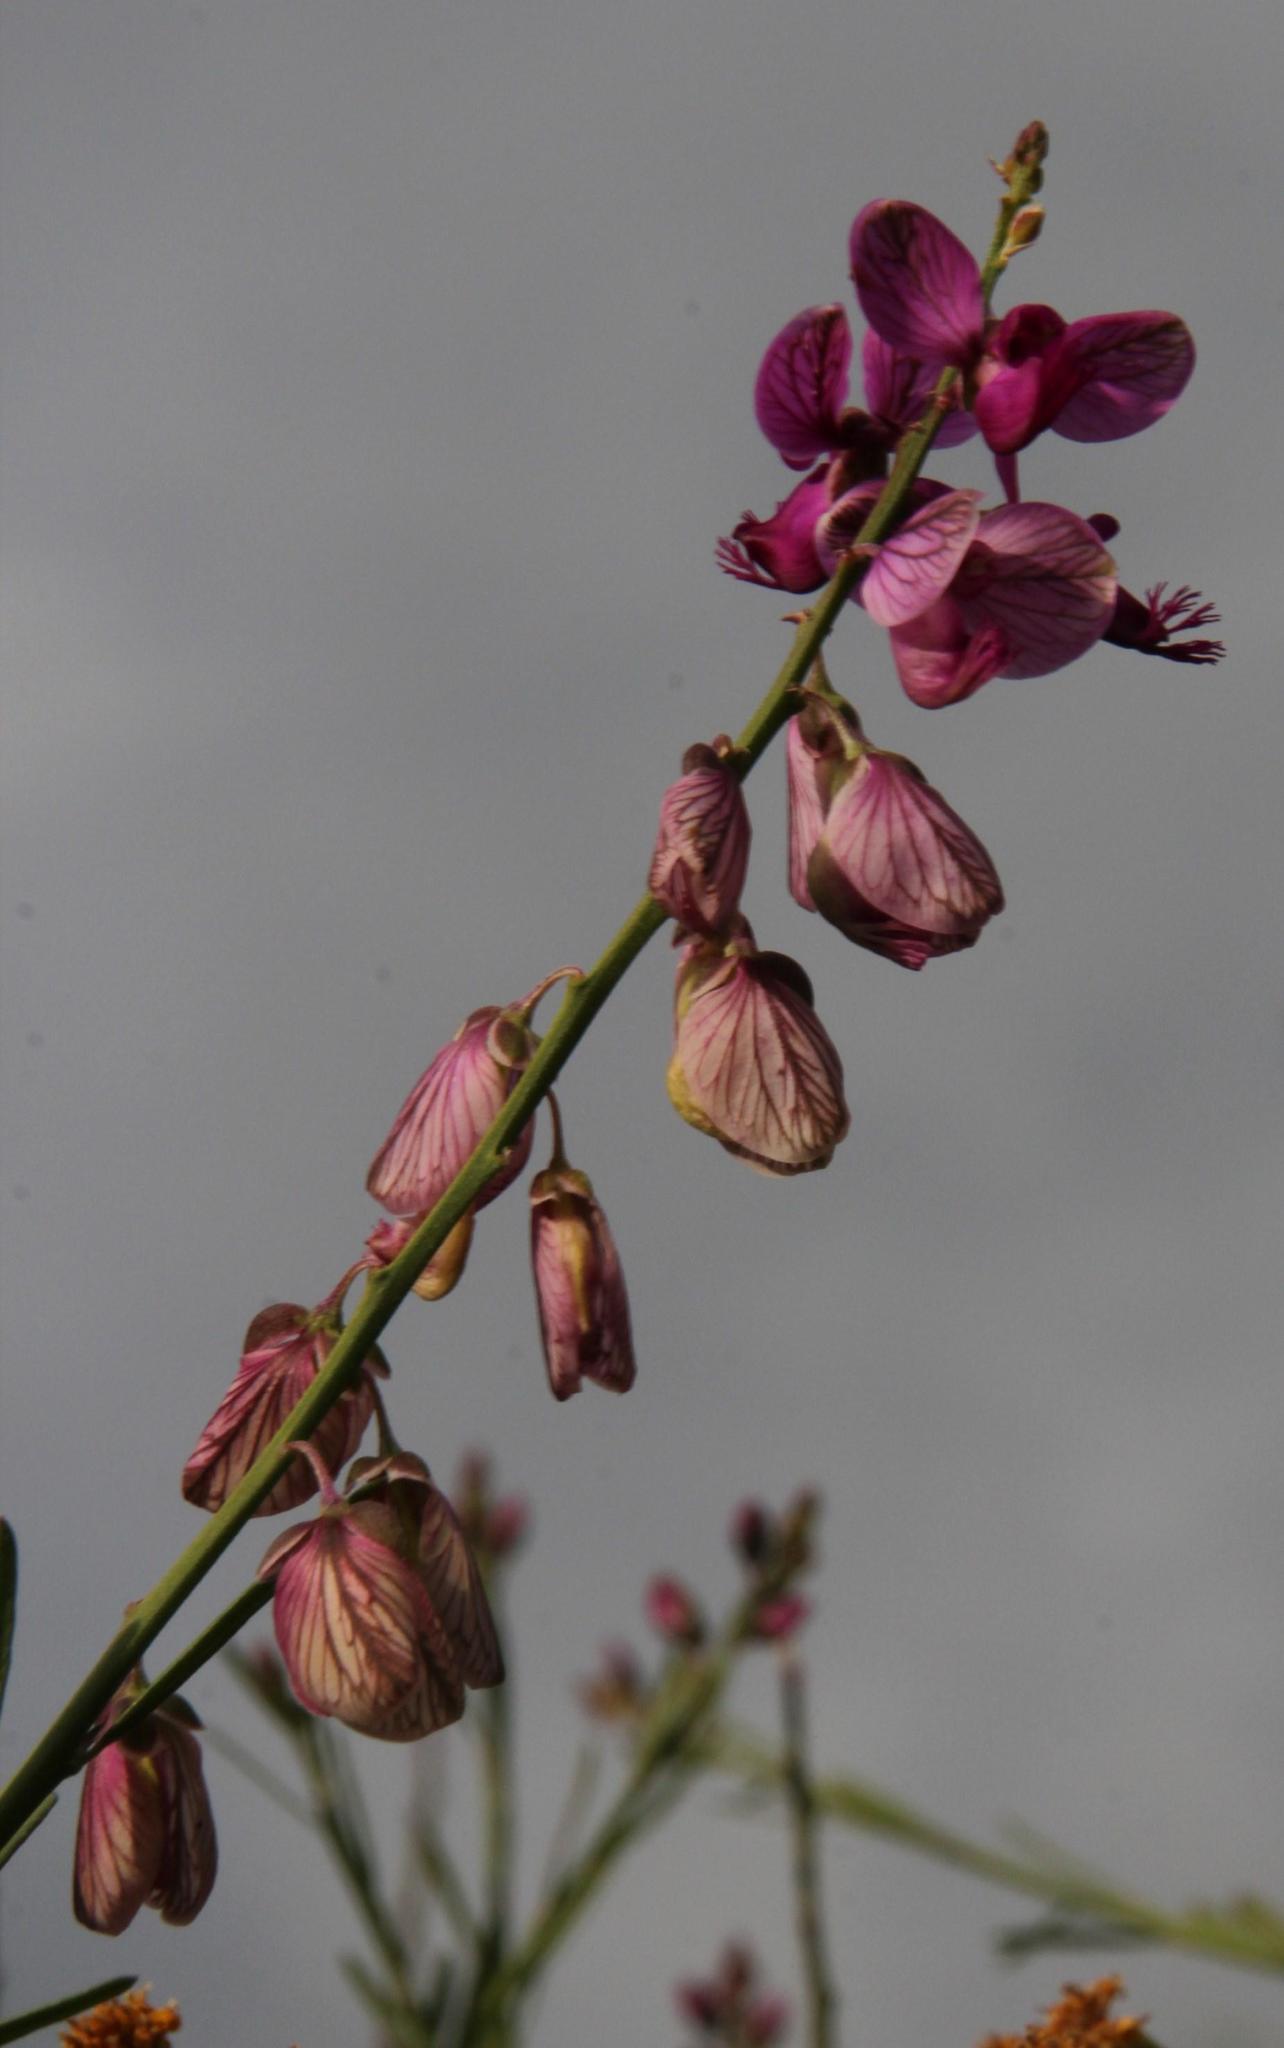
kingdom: Plantae
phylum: Tracheophyta
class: Magnoliopsida
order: Fabales
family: Polygalaceae
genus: Polygala
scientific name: Polygala virgata
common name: Milkwort
